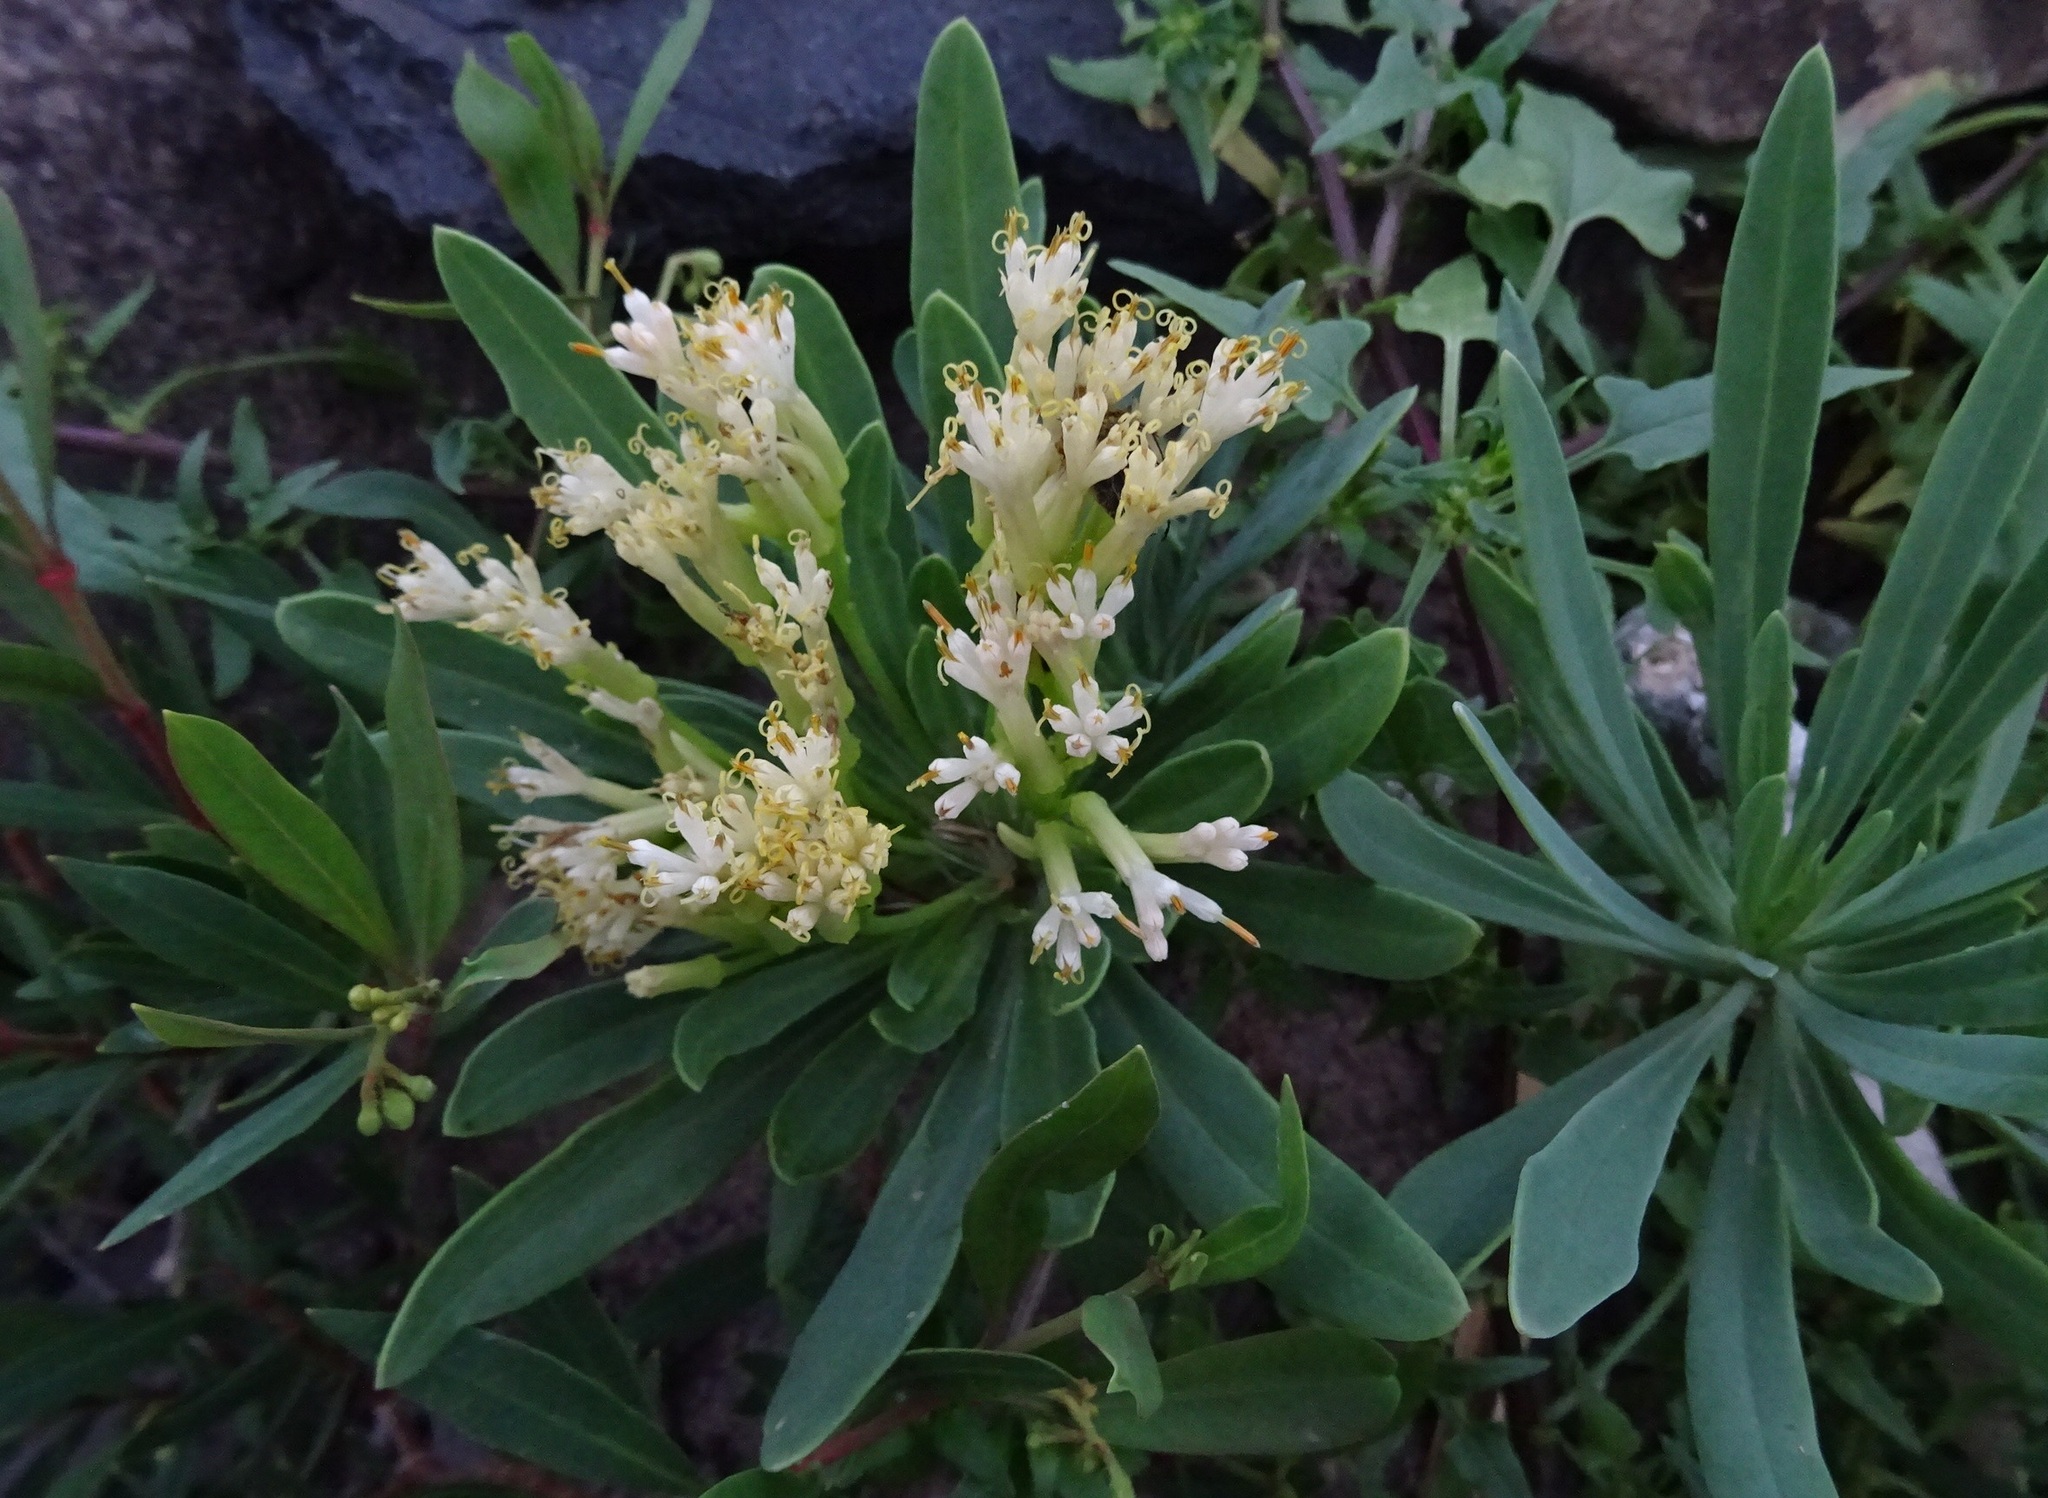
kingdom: Plantae
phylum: Tracheophyta
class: Magnoliopsida
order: Asterales
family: Asteraceae
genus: Kleinia
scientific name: Kleinia neriifolia
